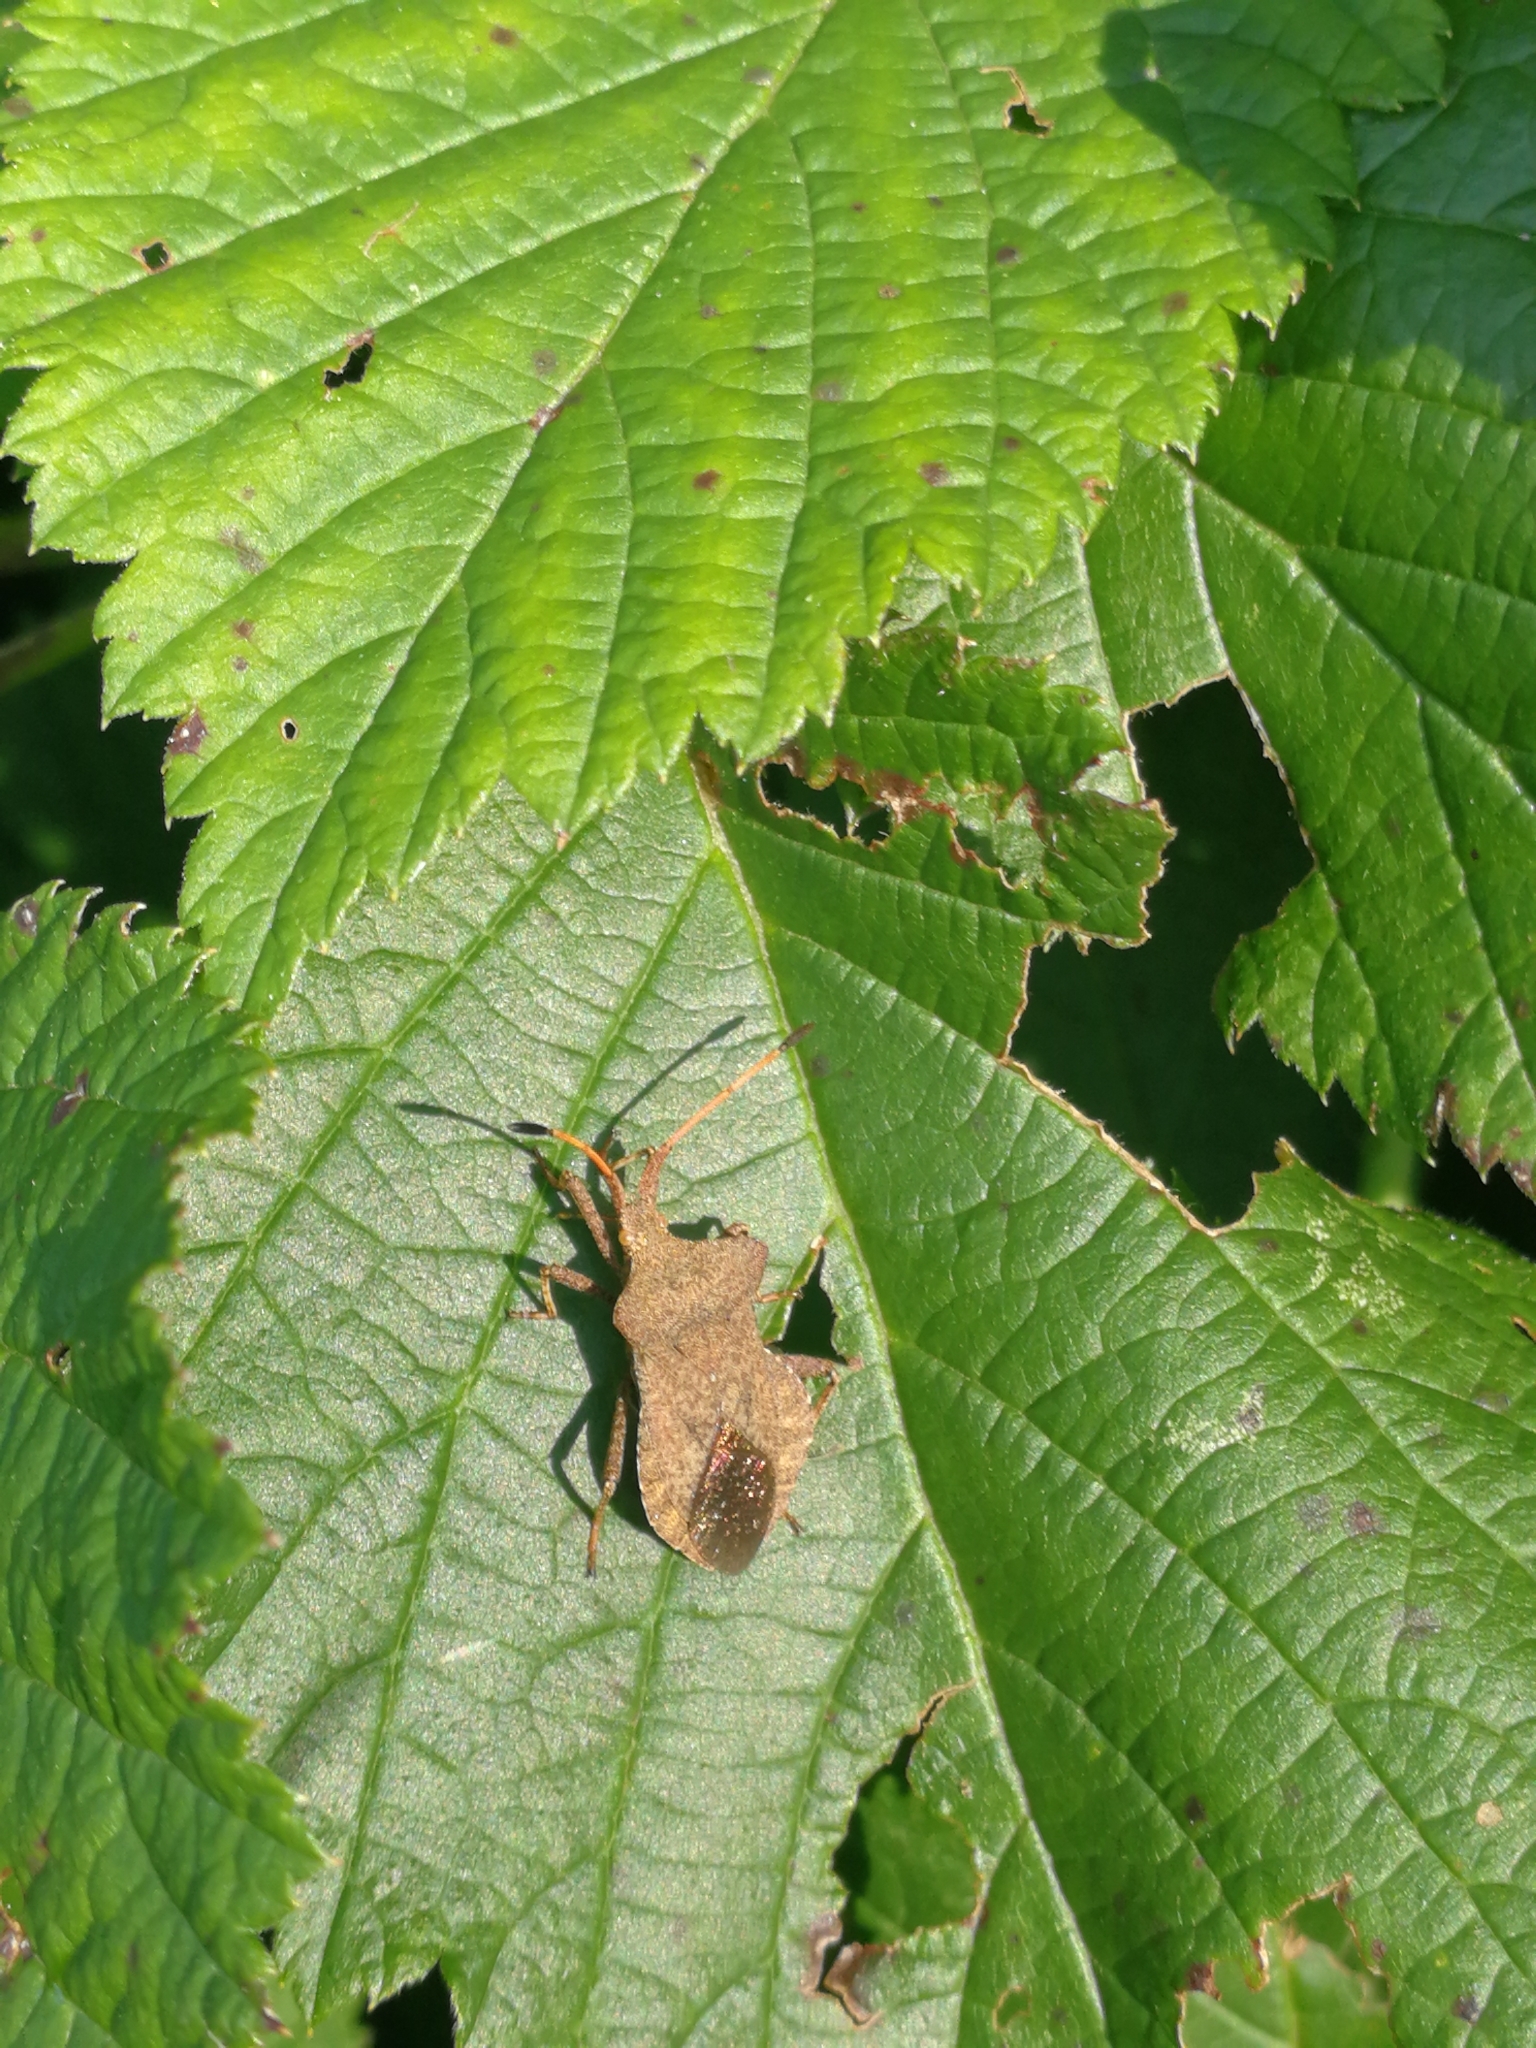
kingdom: Animalia
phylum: Arthropoda
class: Insecta
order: Hemiptera
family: Coreidae
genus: Coreus
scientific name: Coreus marginatus
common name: Dock bug
